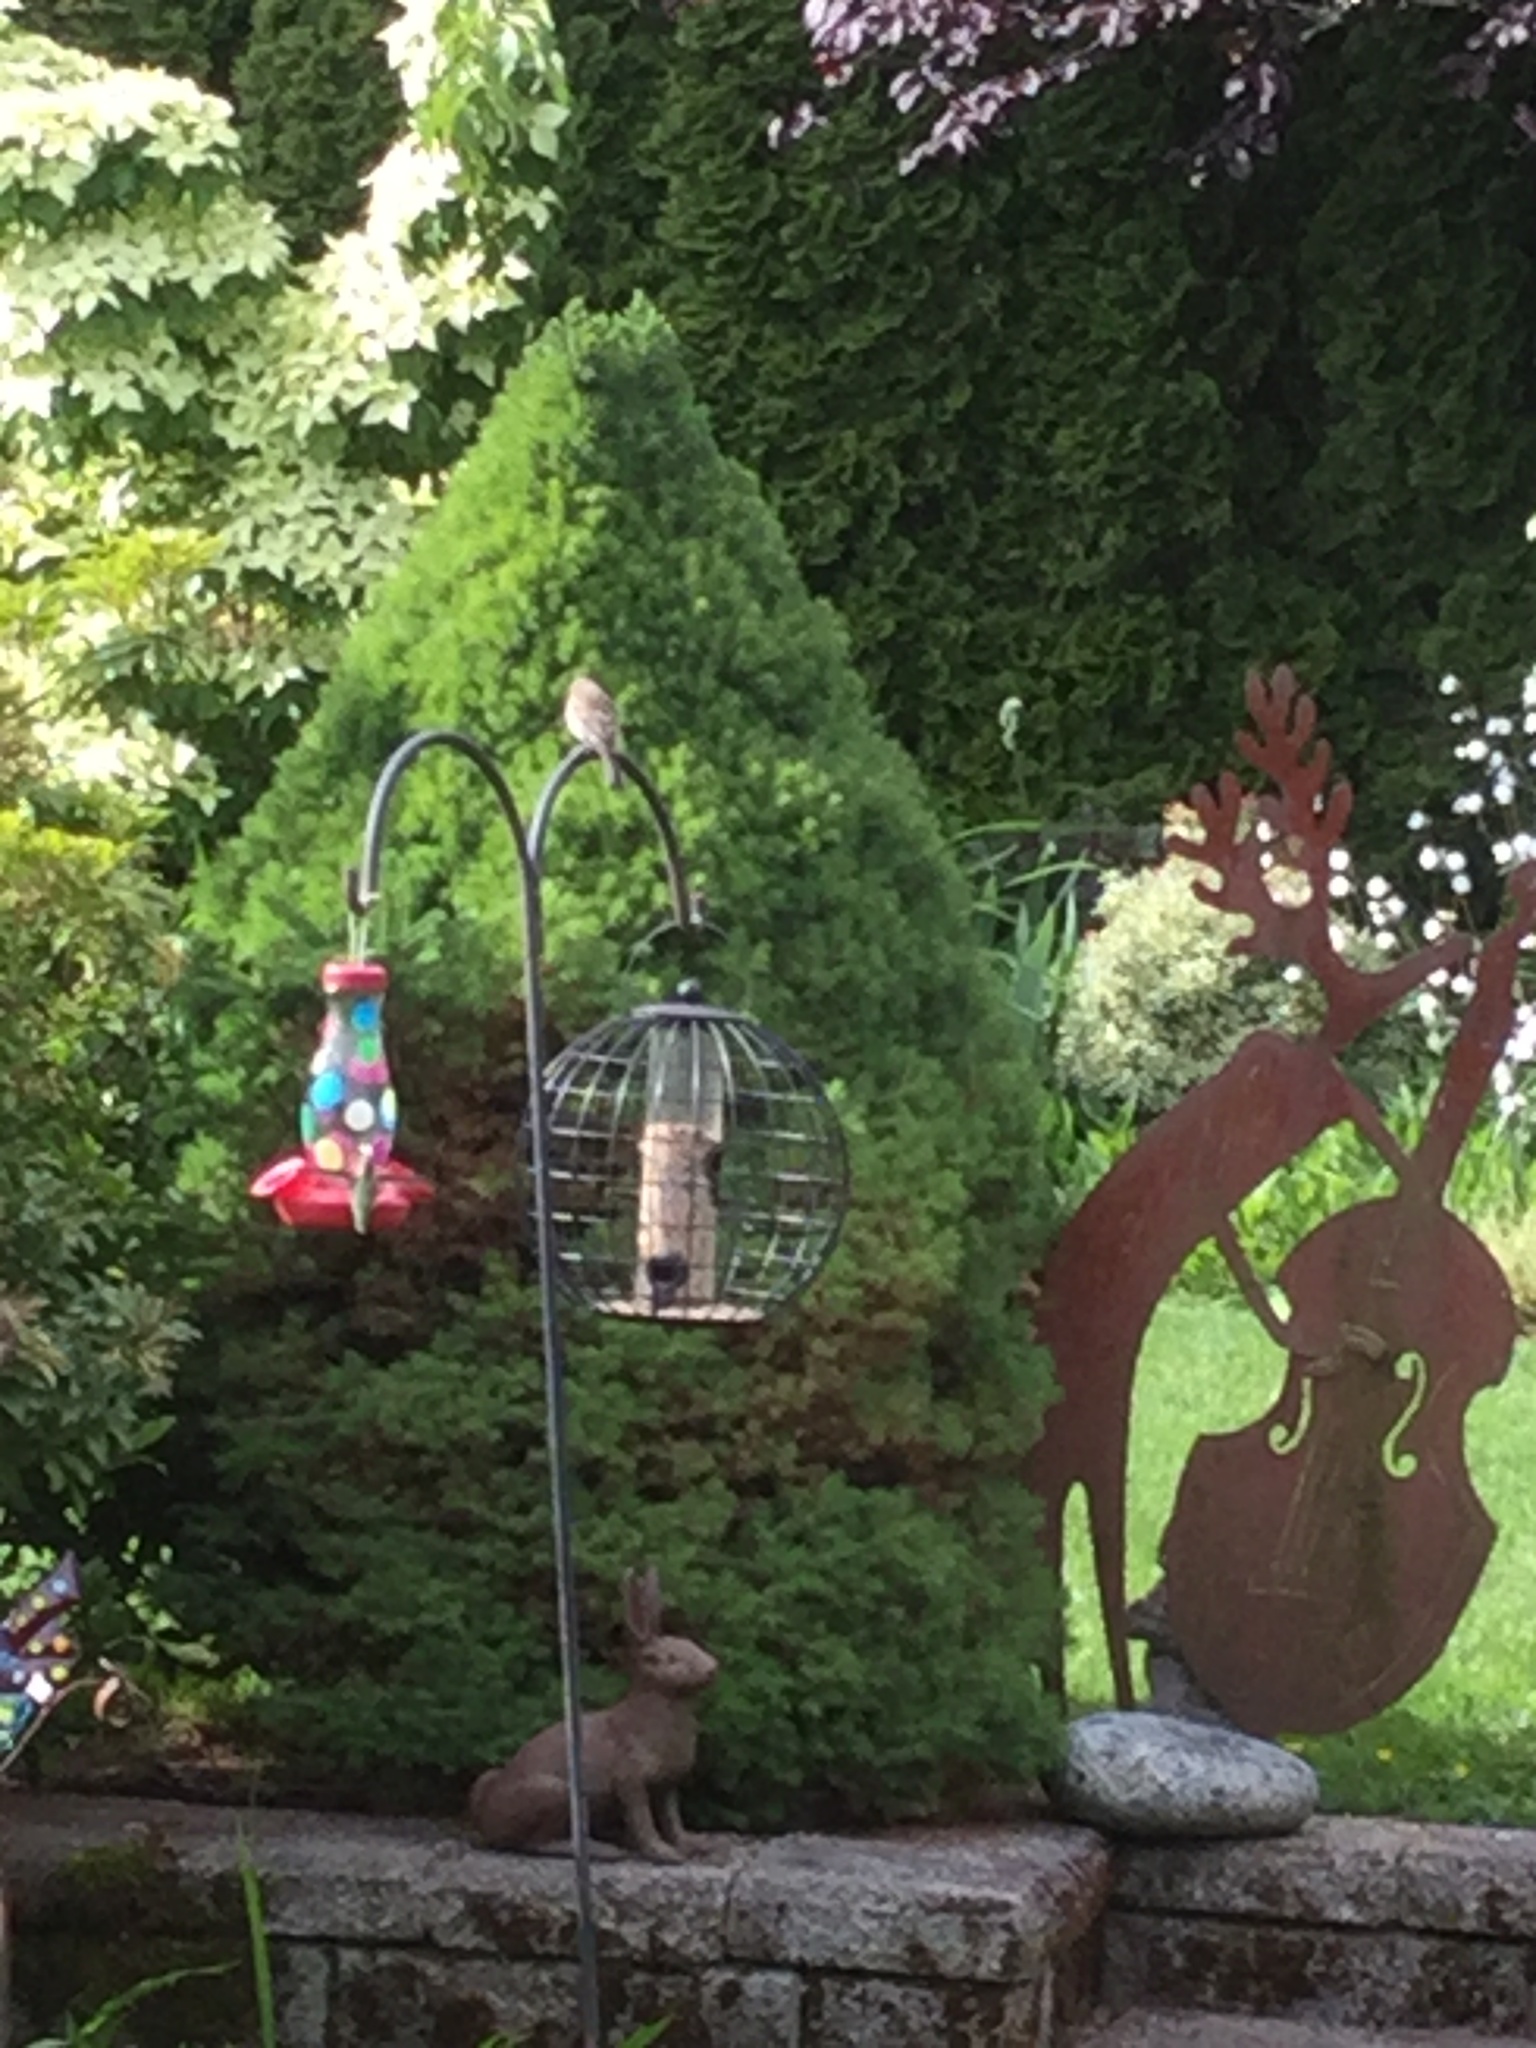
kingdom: Animalia
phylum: Chordata
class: Aves
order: Passeriformes
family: Passeridae
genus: Passer
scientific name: Passer domesticus
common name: House sparrow
